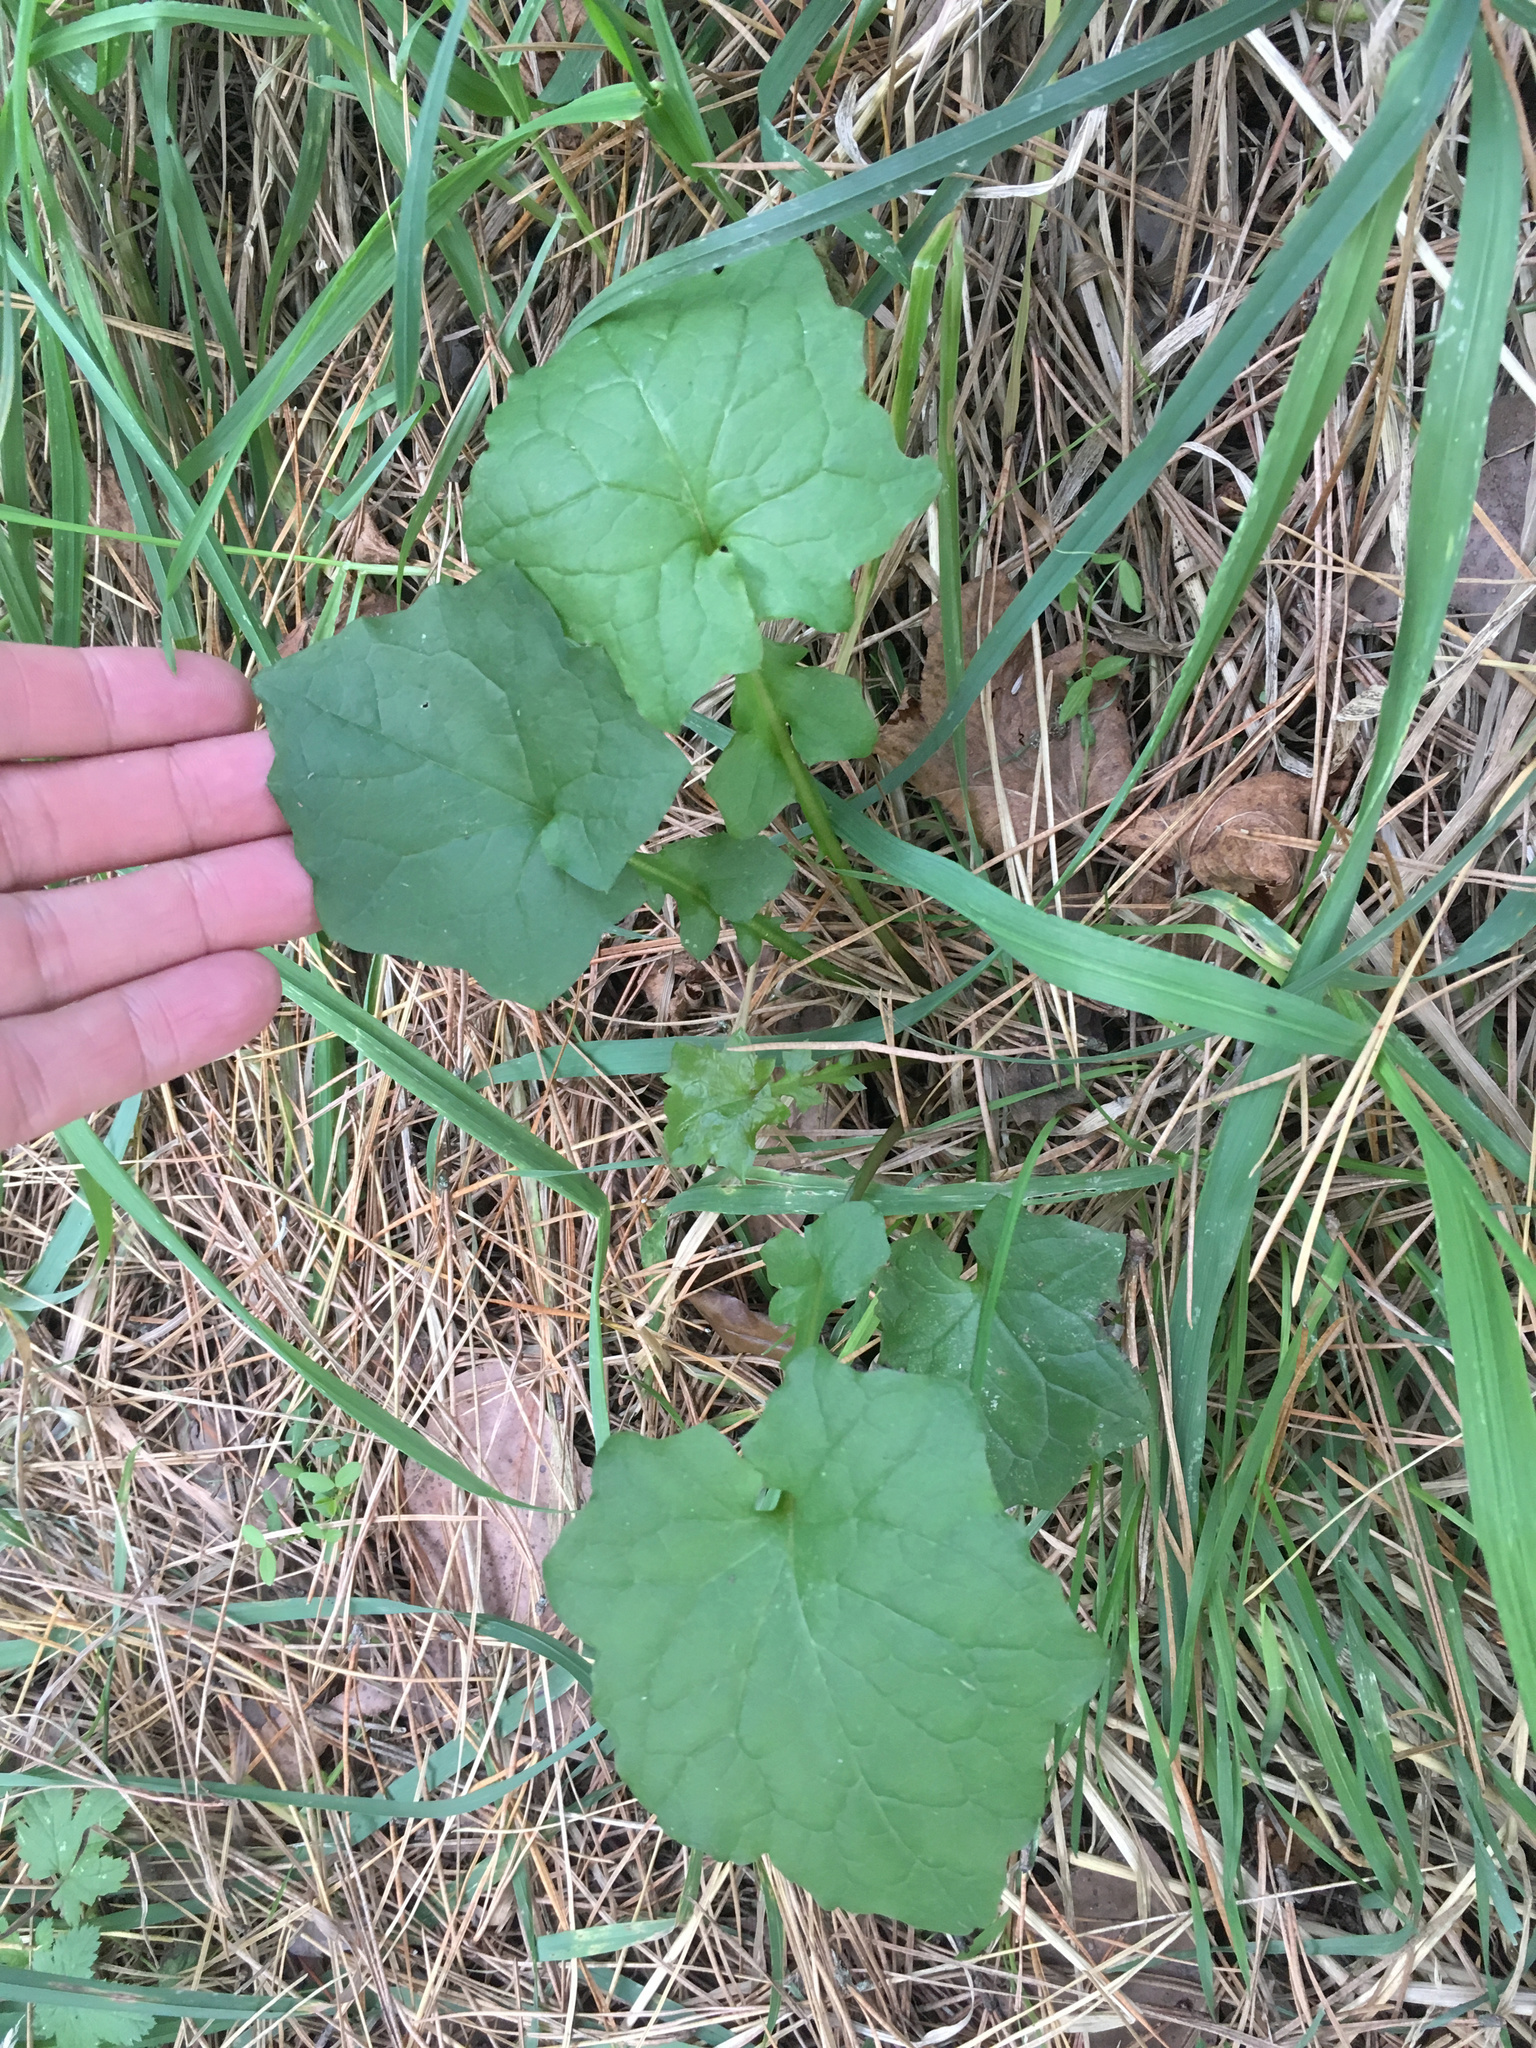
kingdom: Plantae
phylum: Tracheophyta
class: Magnoliopsida
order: Asterales
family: Asteraceae
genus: Mycelis
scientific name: Mycelis muralis
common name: Wall lettuce
